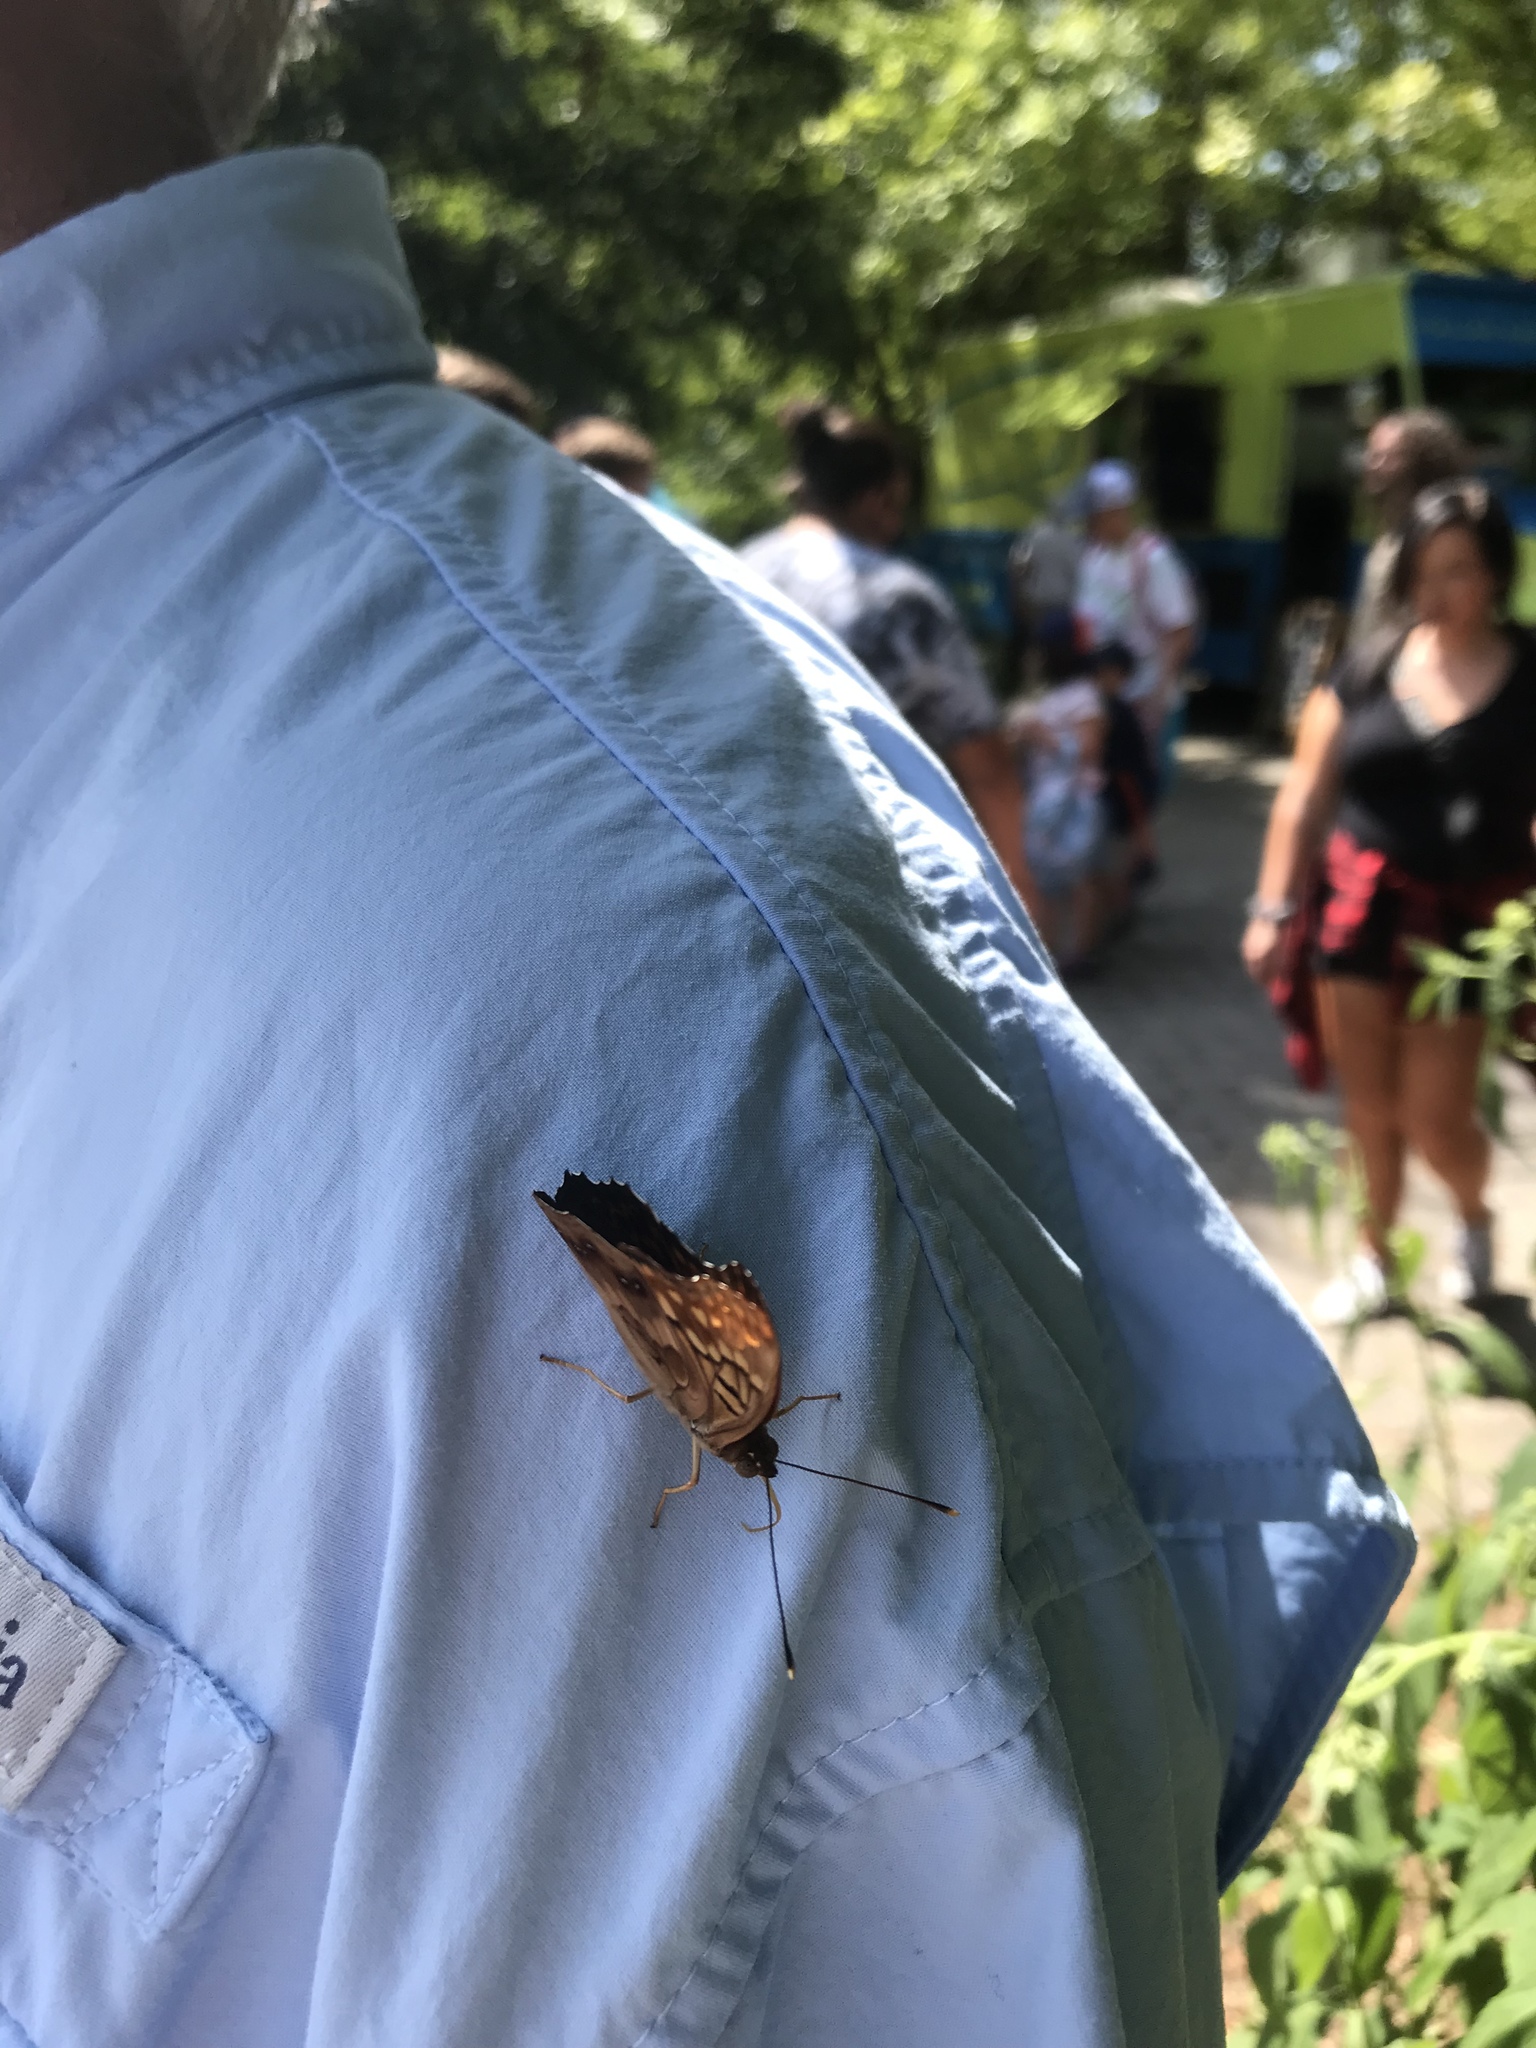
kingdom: Animalia
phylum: Arthropoda
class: Insecta
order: Lepidoptera
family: Nymphalidae
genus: Asterocampa
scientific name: Asterocampa clyton
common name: Tawny emperor
